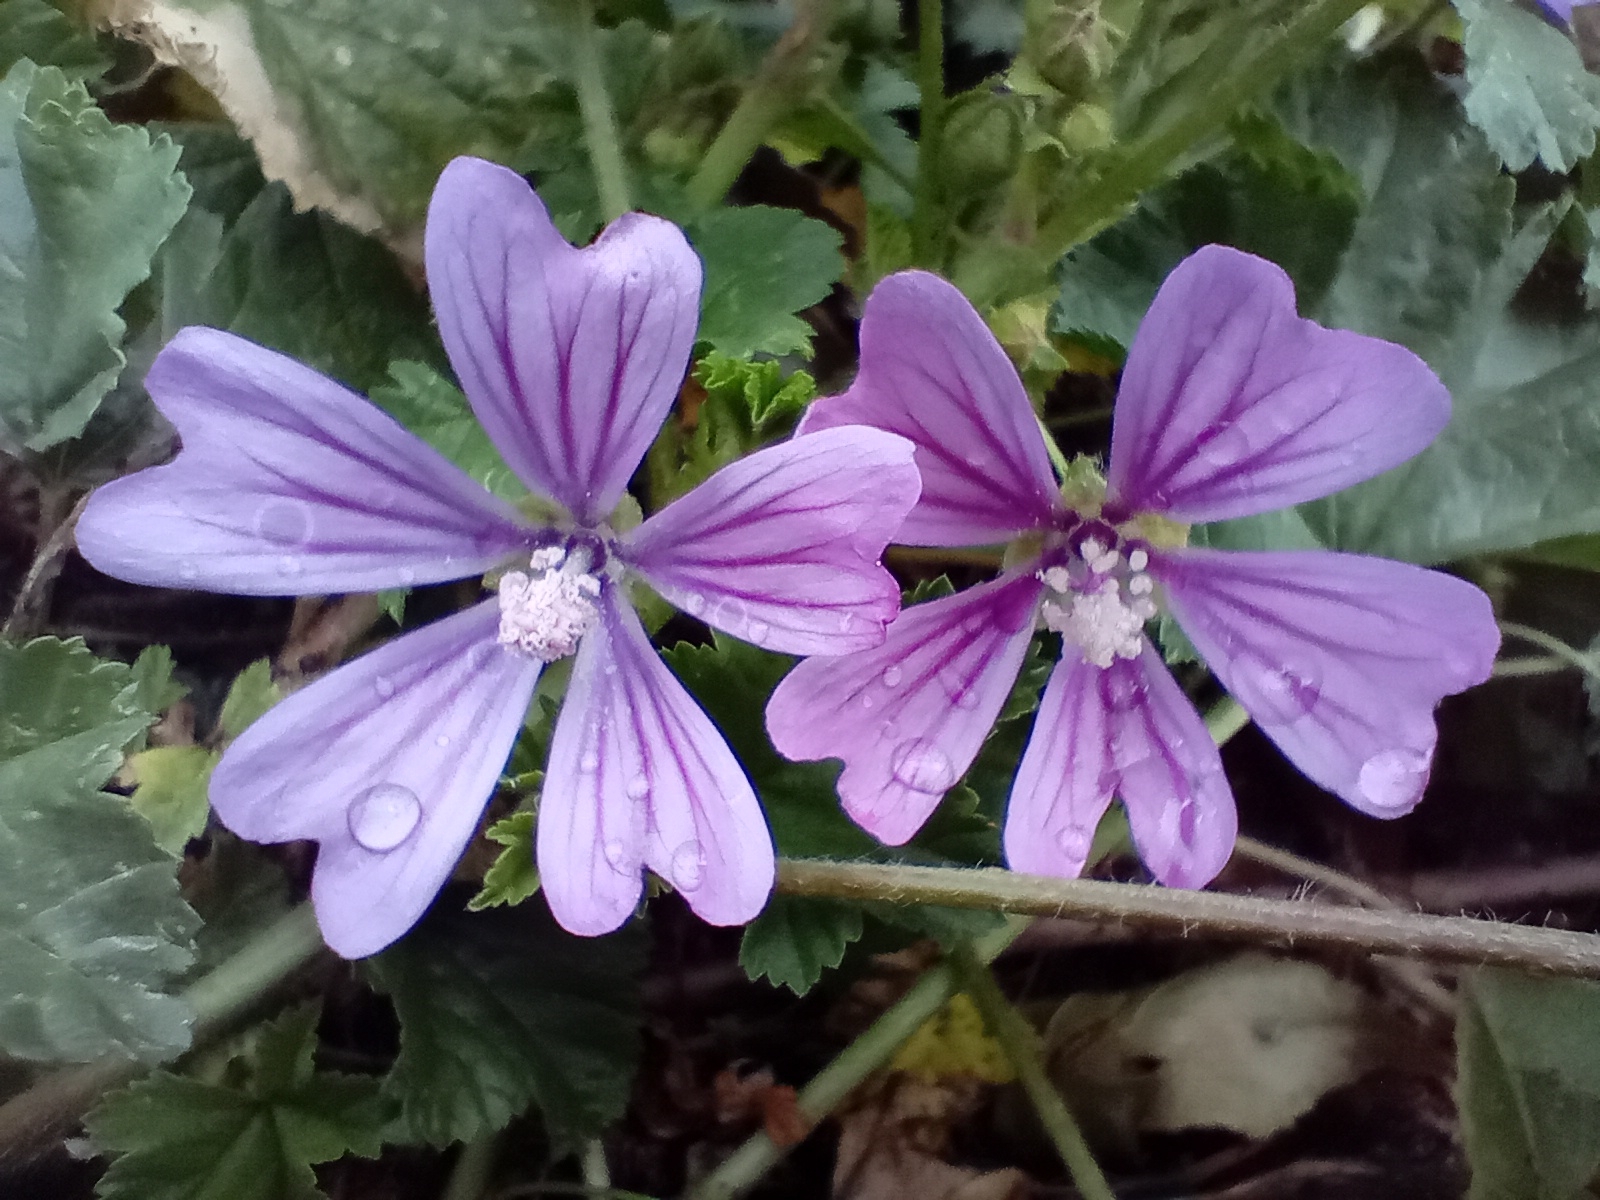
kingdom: Plantae
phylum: Tracheophyta
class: Magnoliopsida
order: Malvales
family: Malvaceae
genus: Malva
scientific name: Malva sylvestris
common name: Common mallow
